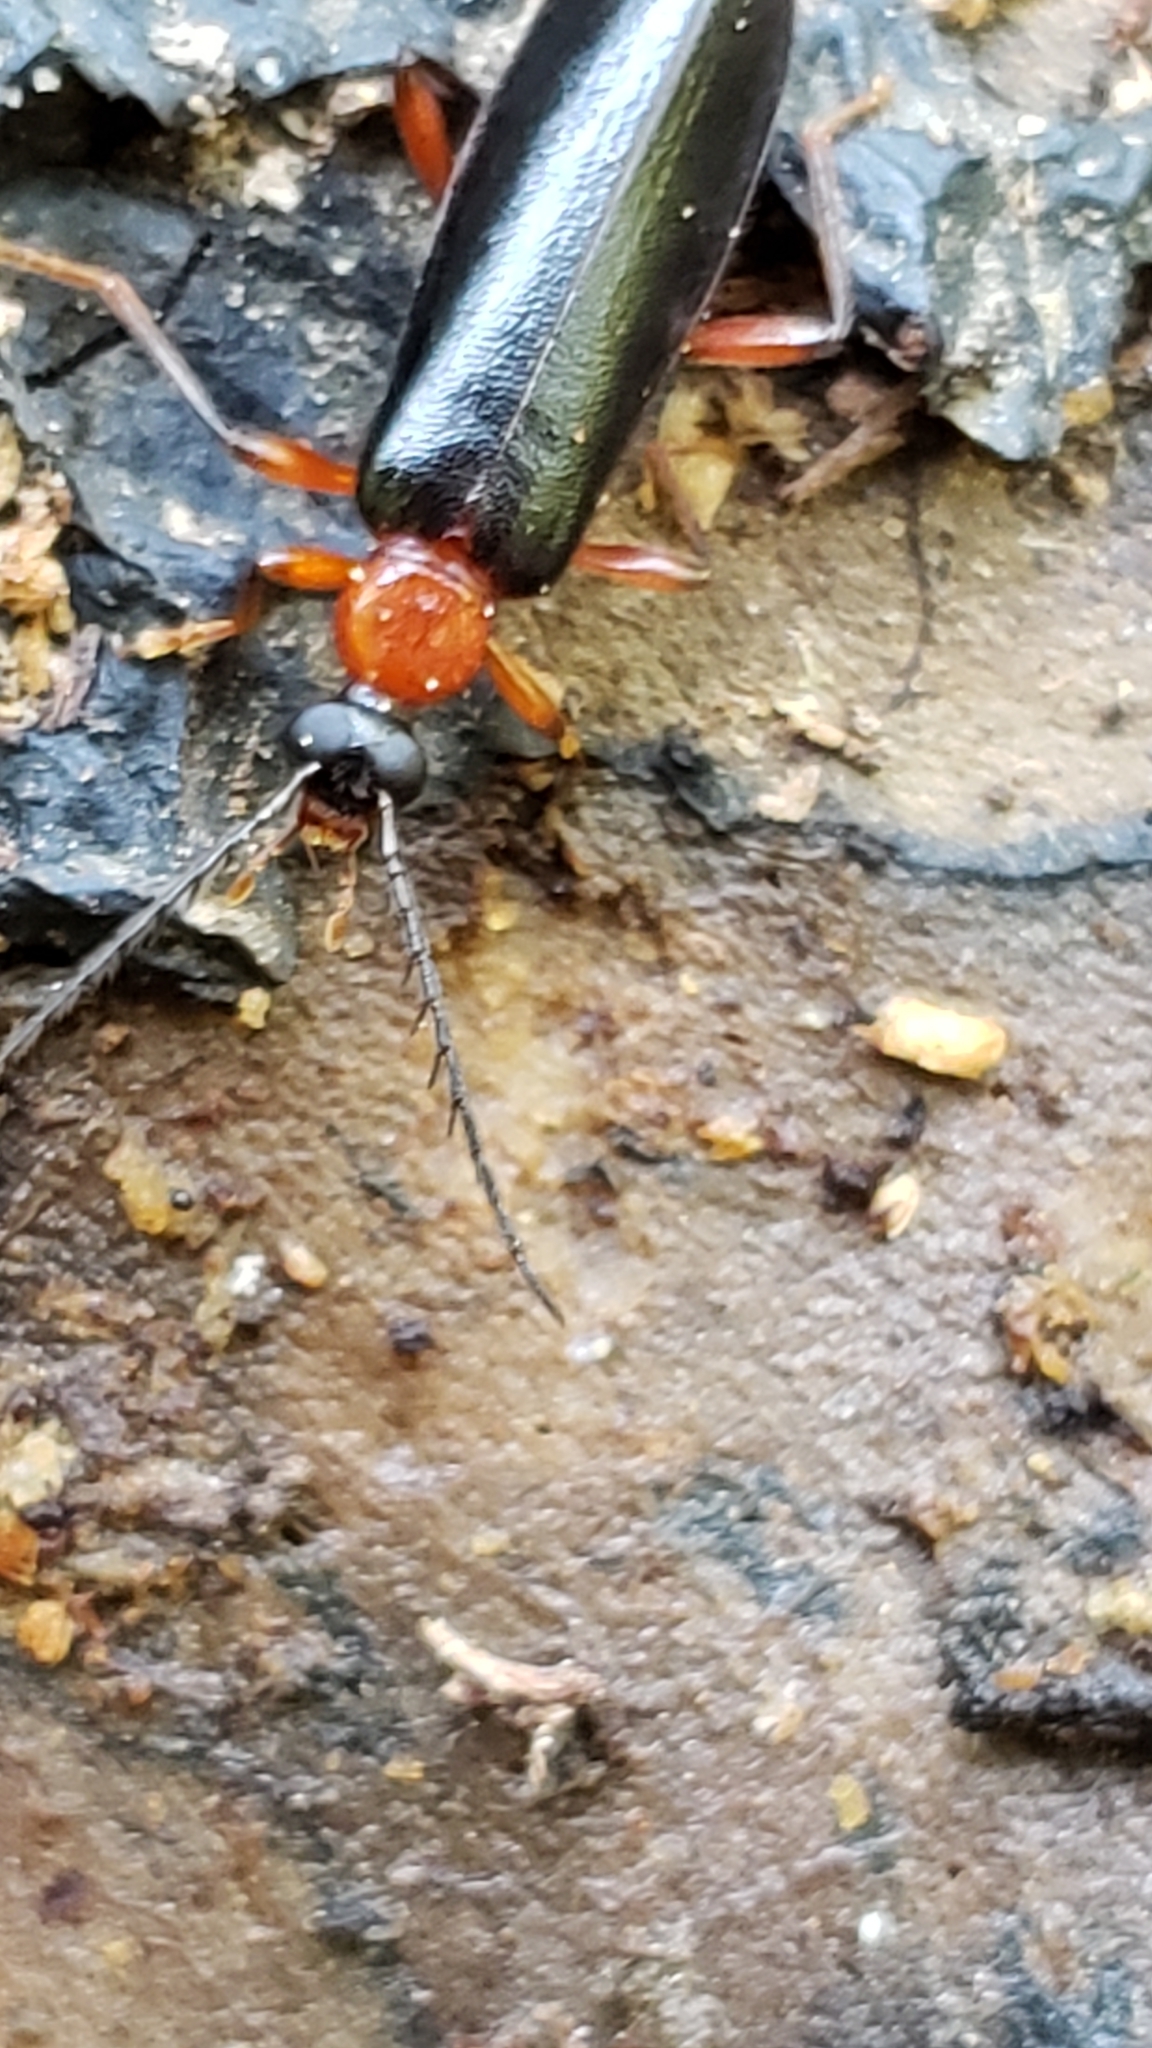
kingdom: Animalia
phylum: Arthropoda
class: Insecta
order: Coleoptera
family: Pyrochroidae
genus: Dendroides
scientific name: Dendroides canadensis
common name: Canada fire-colored beetle
